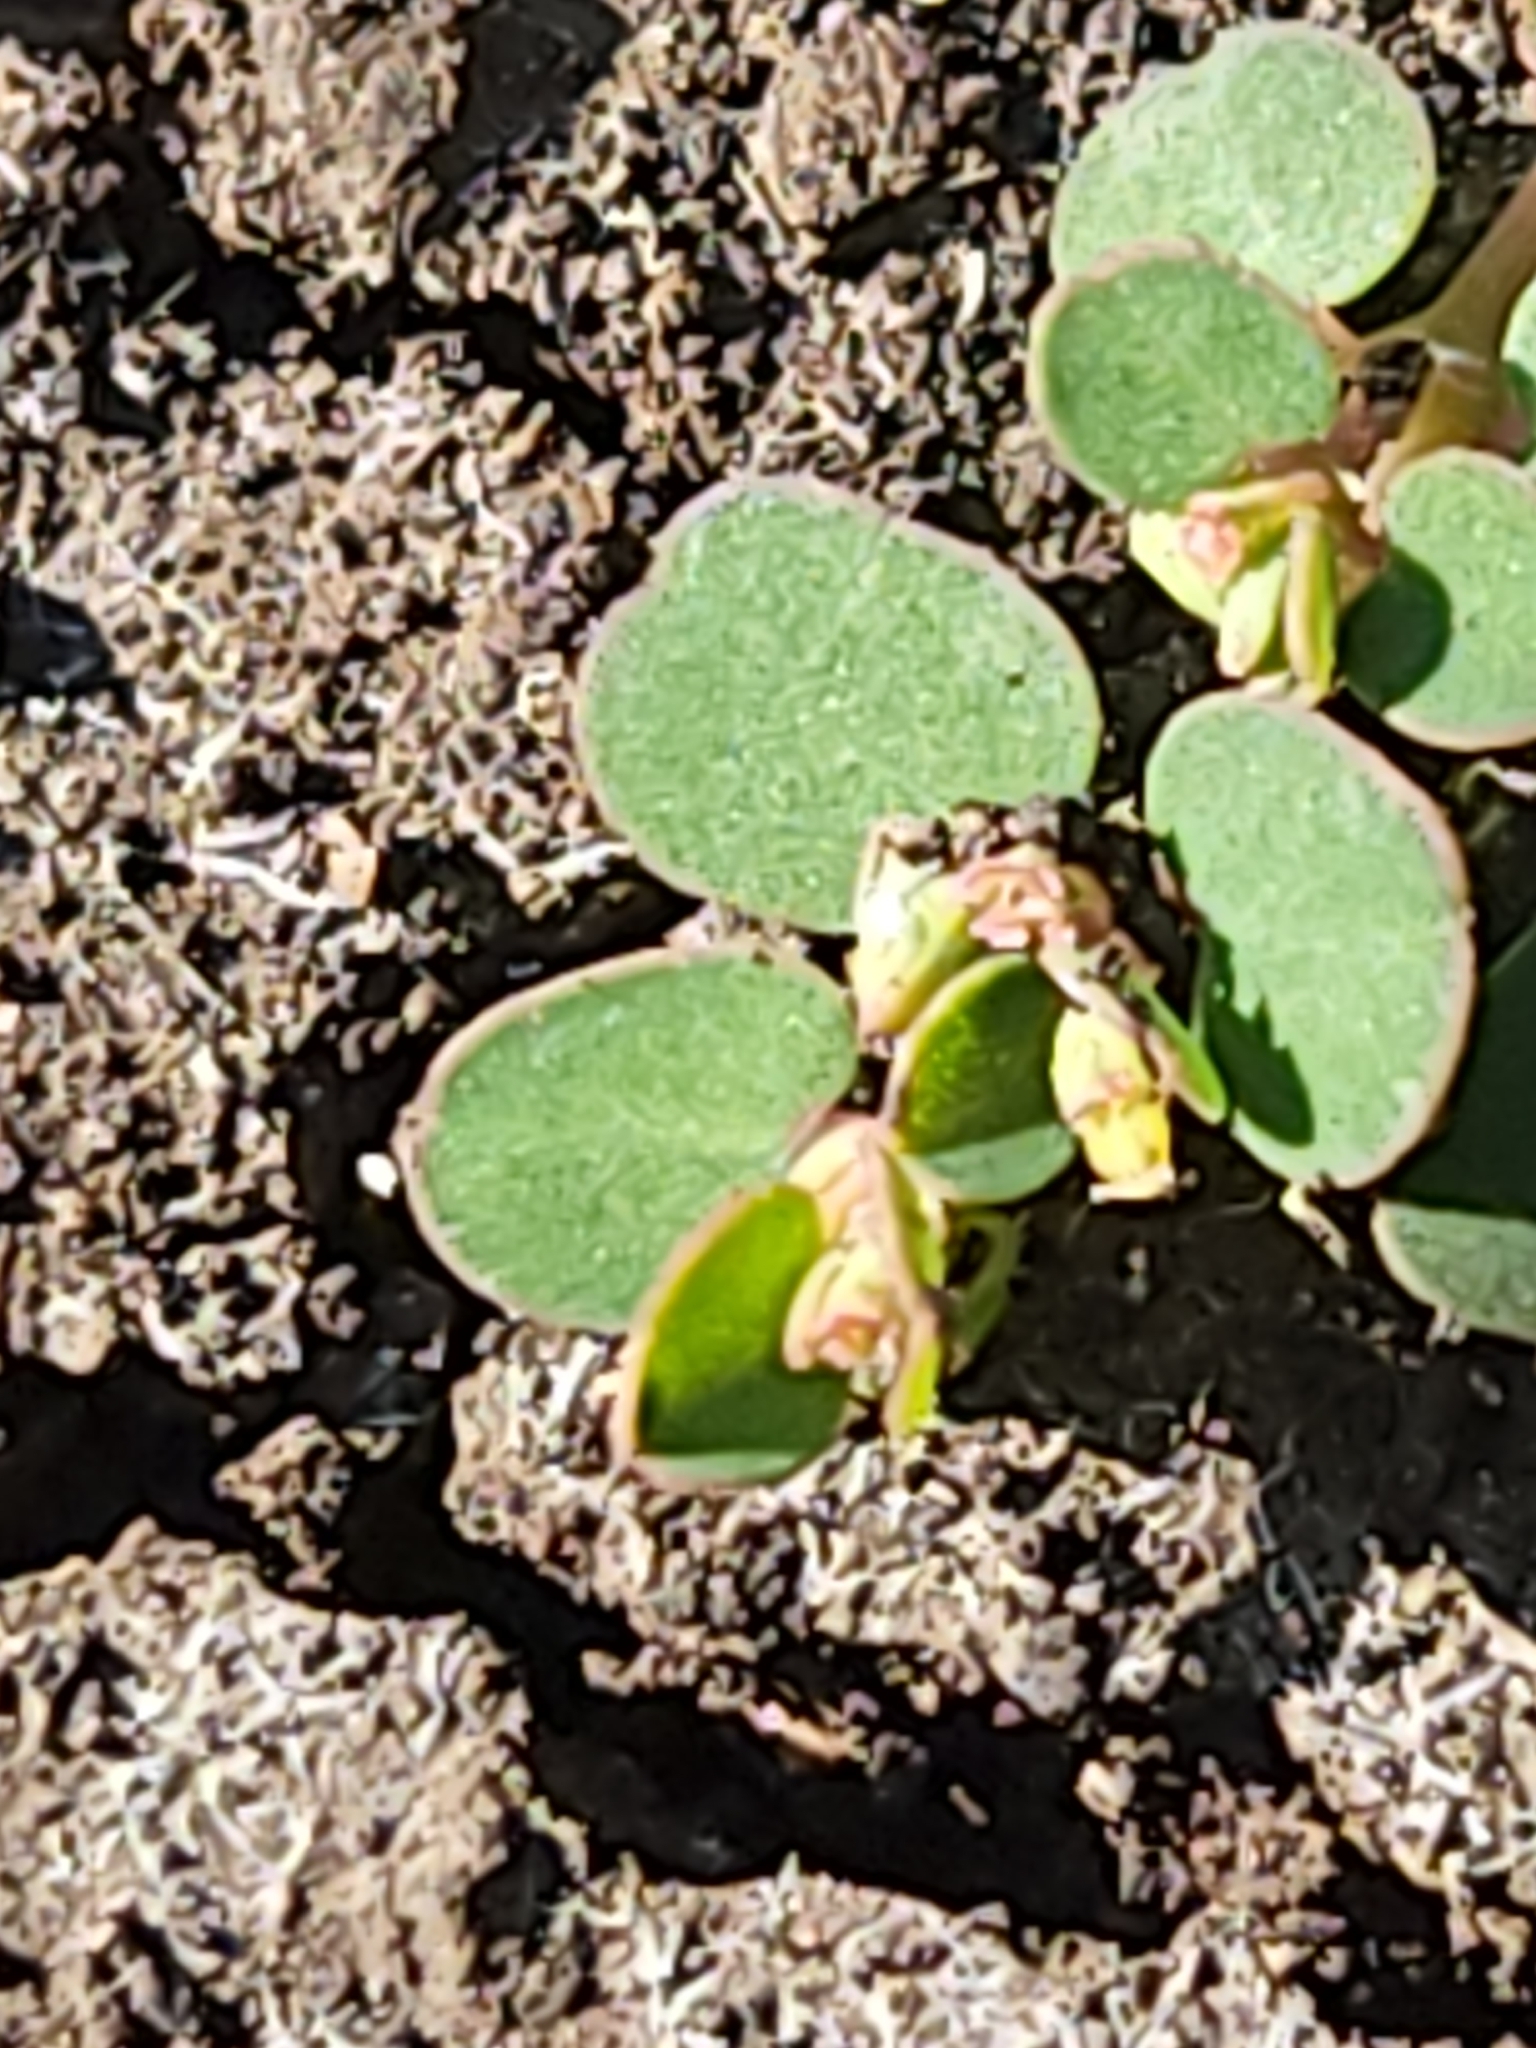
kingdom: Plantae
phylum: Tracheophyta
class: Magnoliopsida
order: Malpighiales
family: Euphorbiaceae
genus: Euphorbia
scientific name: Euphorbia serpens
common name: Matted sandmat
